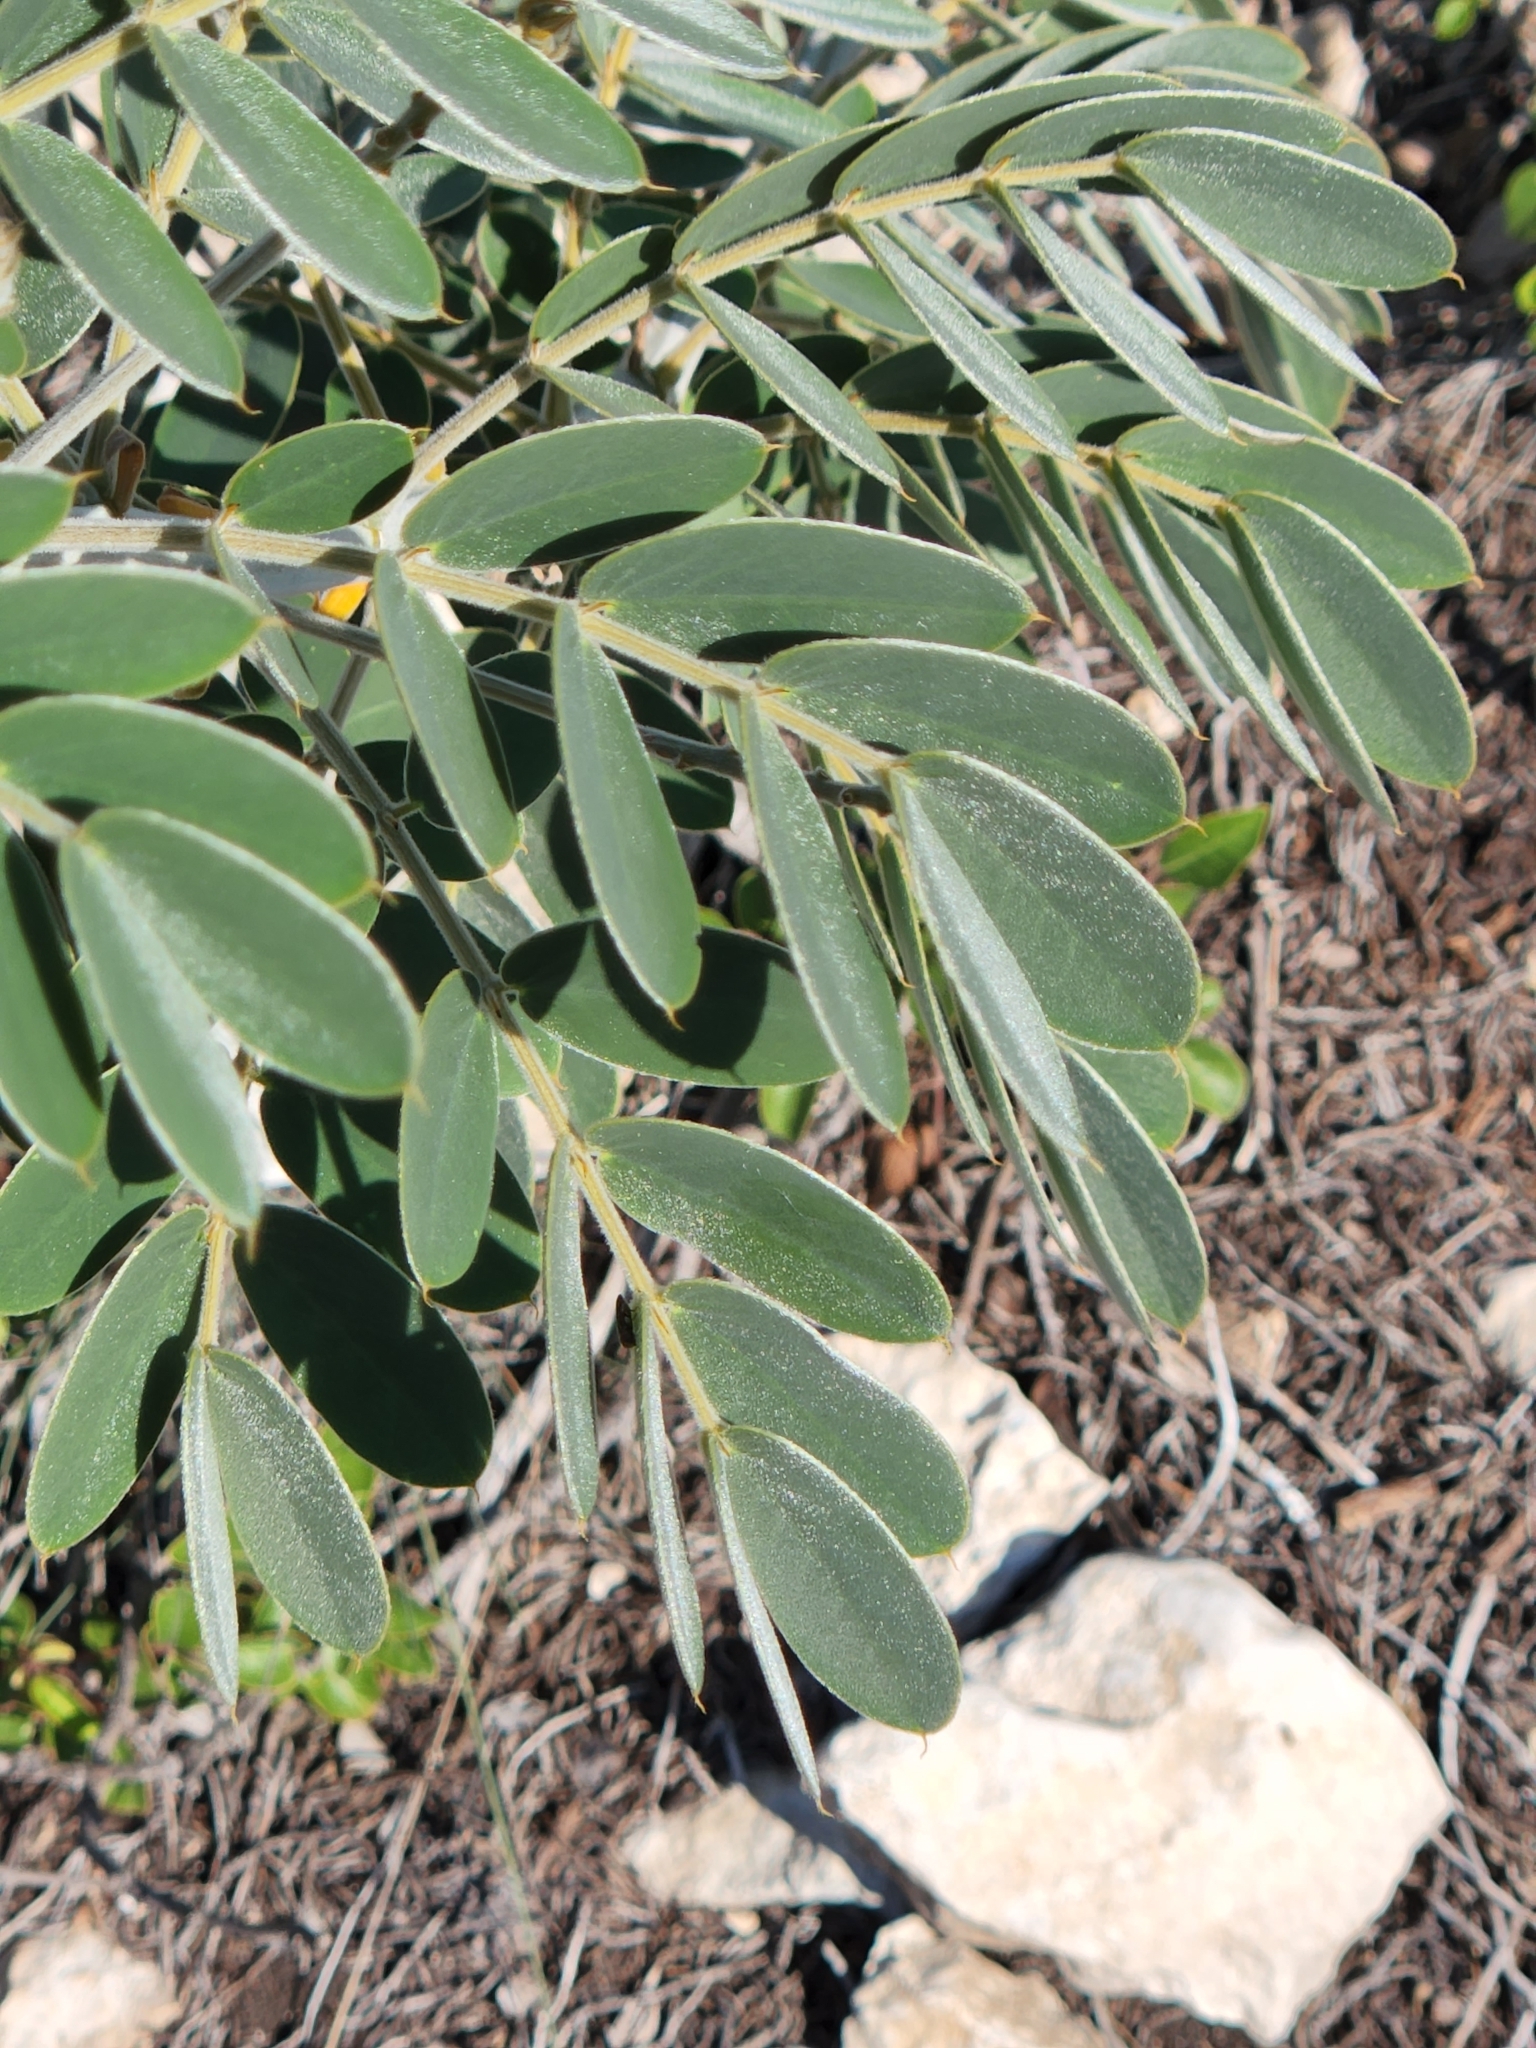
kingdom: Plantae
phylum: Tracheophyta
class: Magnoliopsida
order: Fabales
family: Fabaceae
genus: Senna
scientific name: Senna lindheimeriana
